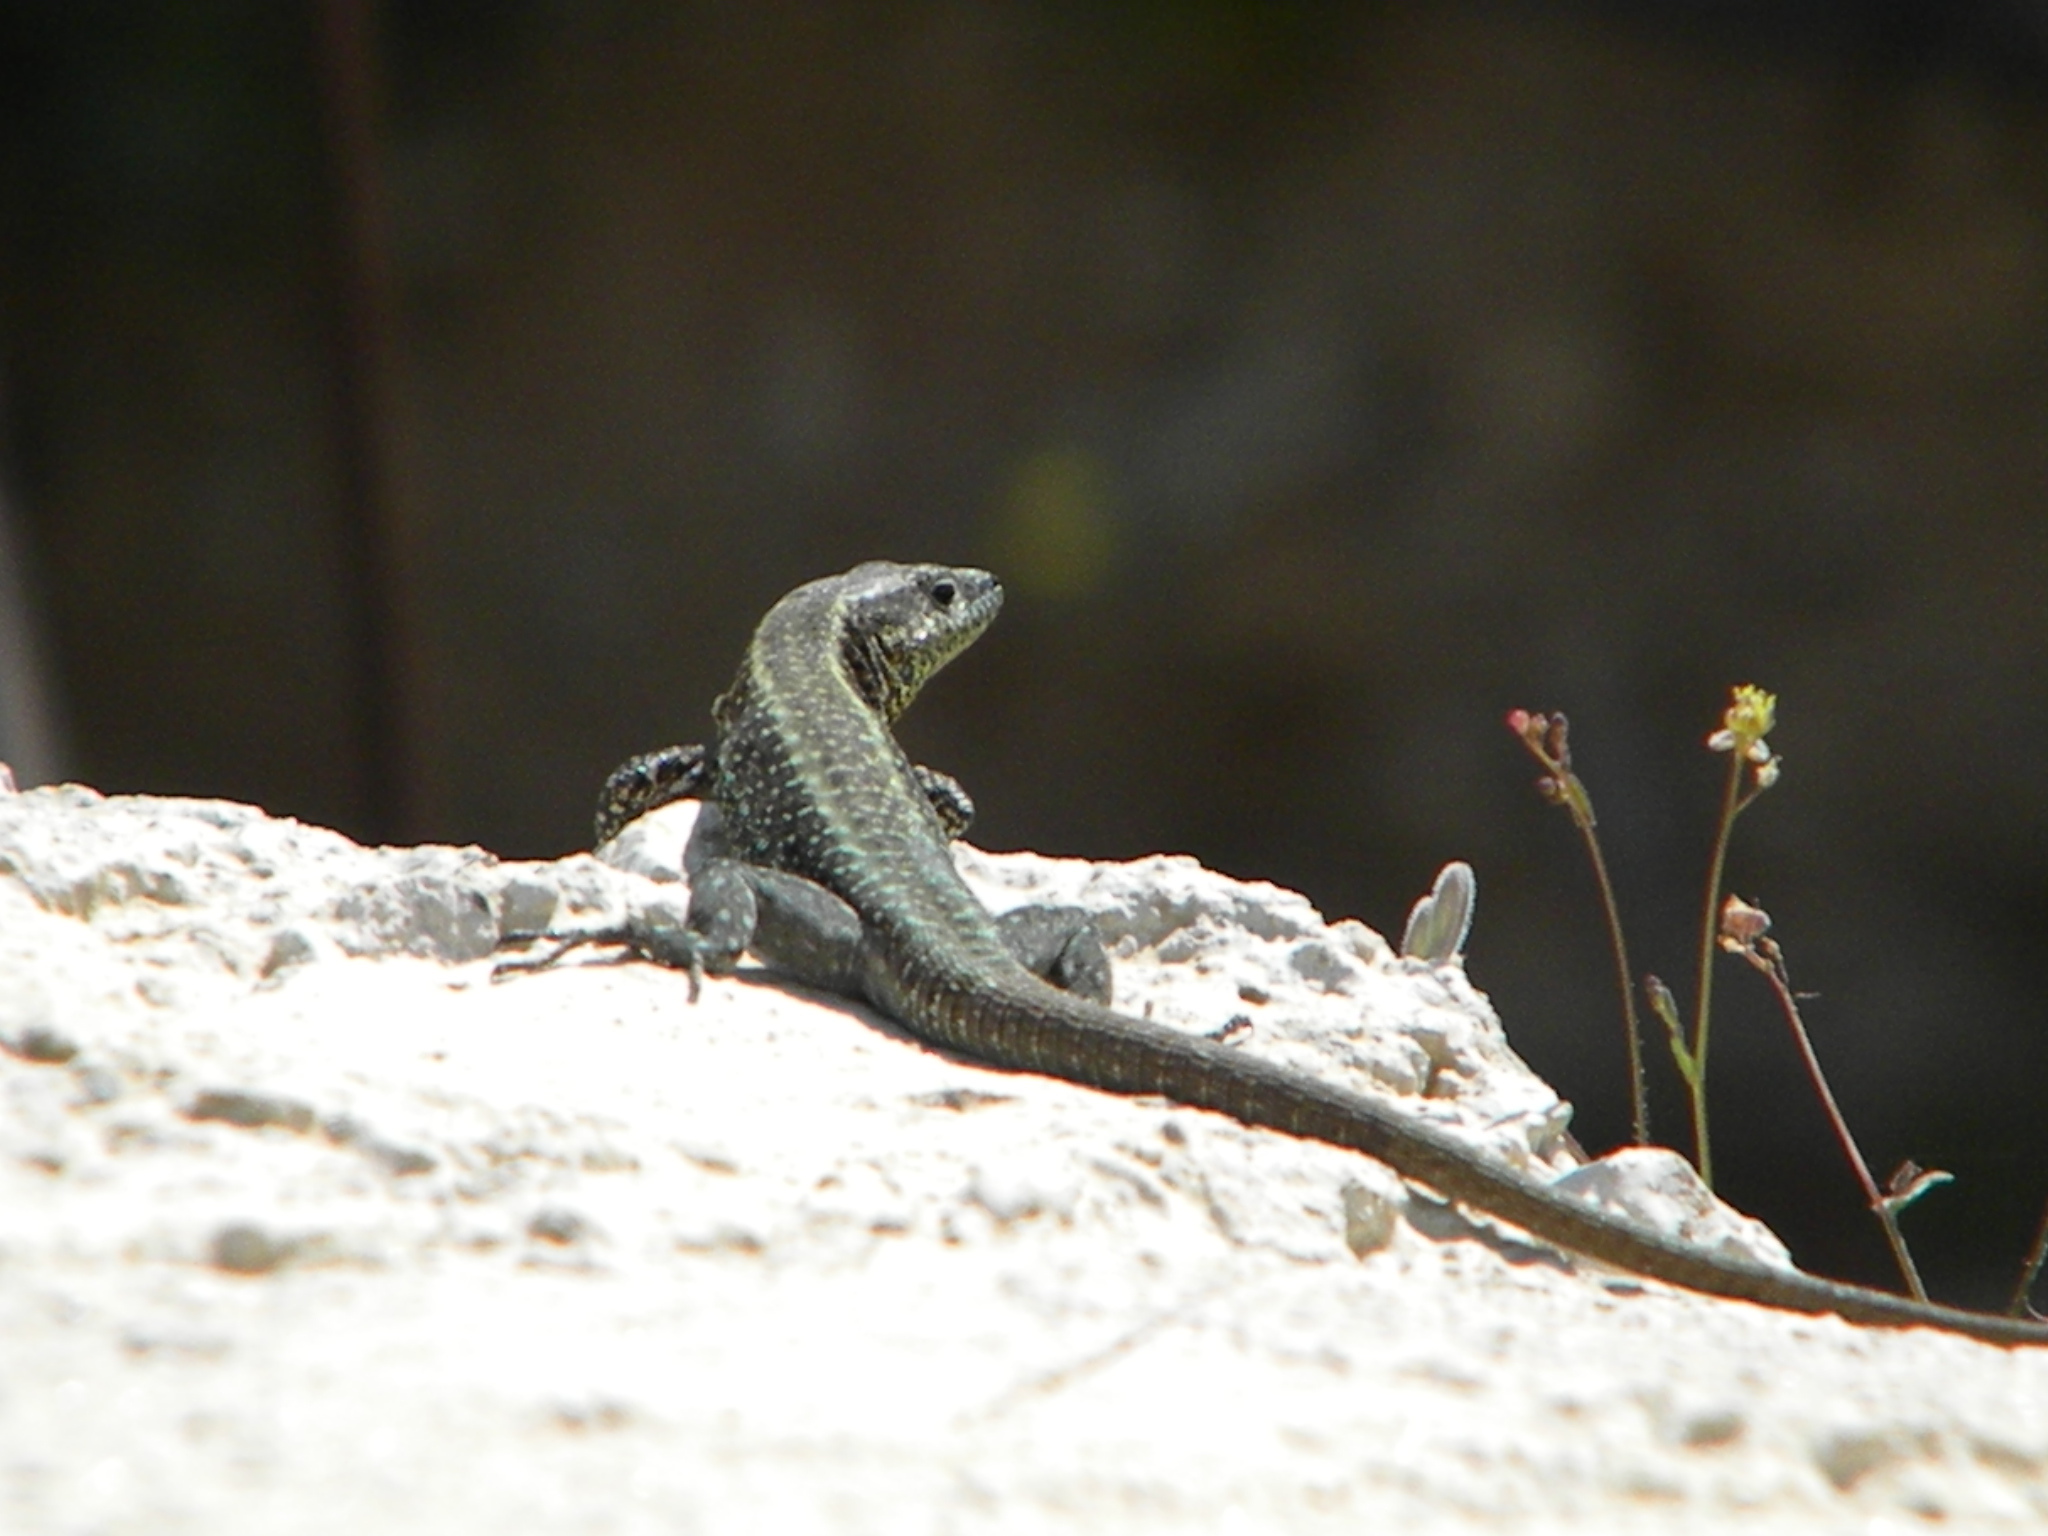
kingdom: Animalia
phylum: Chordata
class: Squamata
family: Lacertidae
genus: Anatololacerta
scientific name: Anatololacerta anatolica
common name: Anatolian rock lizard
